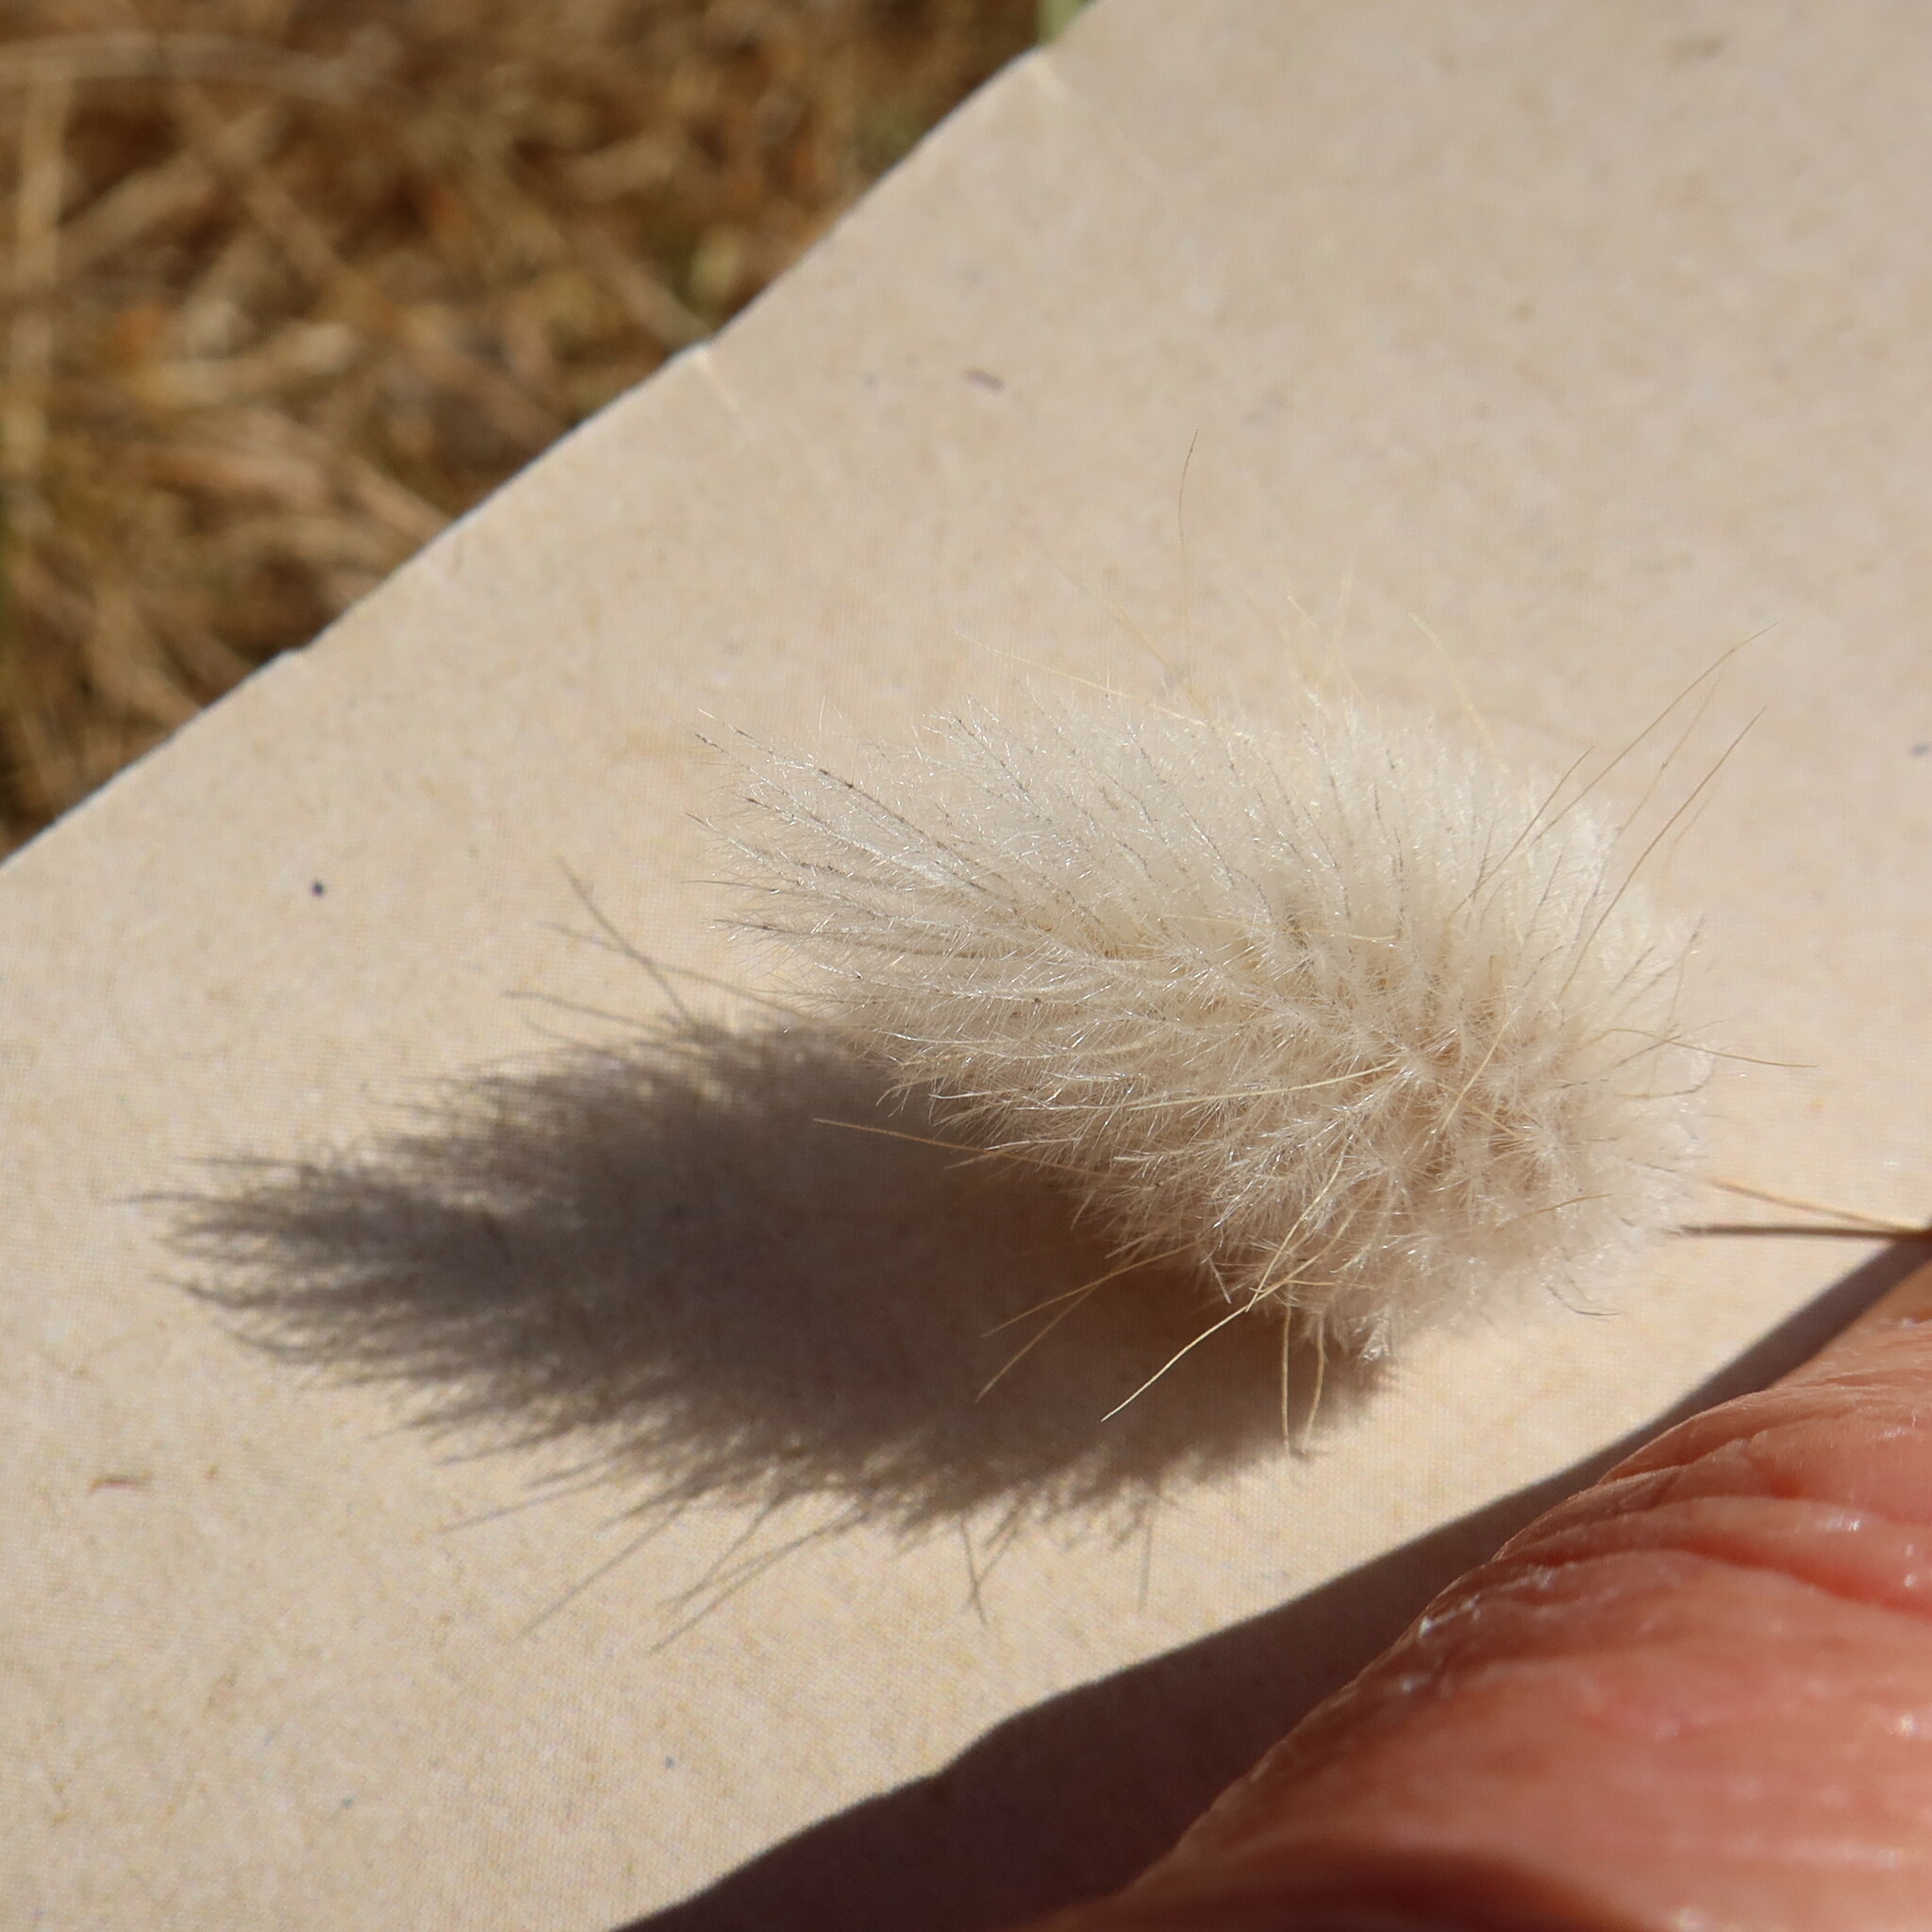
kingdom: Plantae
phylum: Tracheophyta
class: Liliopsida
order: Poales
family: Poaceae
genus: Lagurus
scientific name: Lagurus ovatus
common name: Hare's-tail
